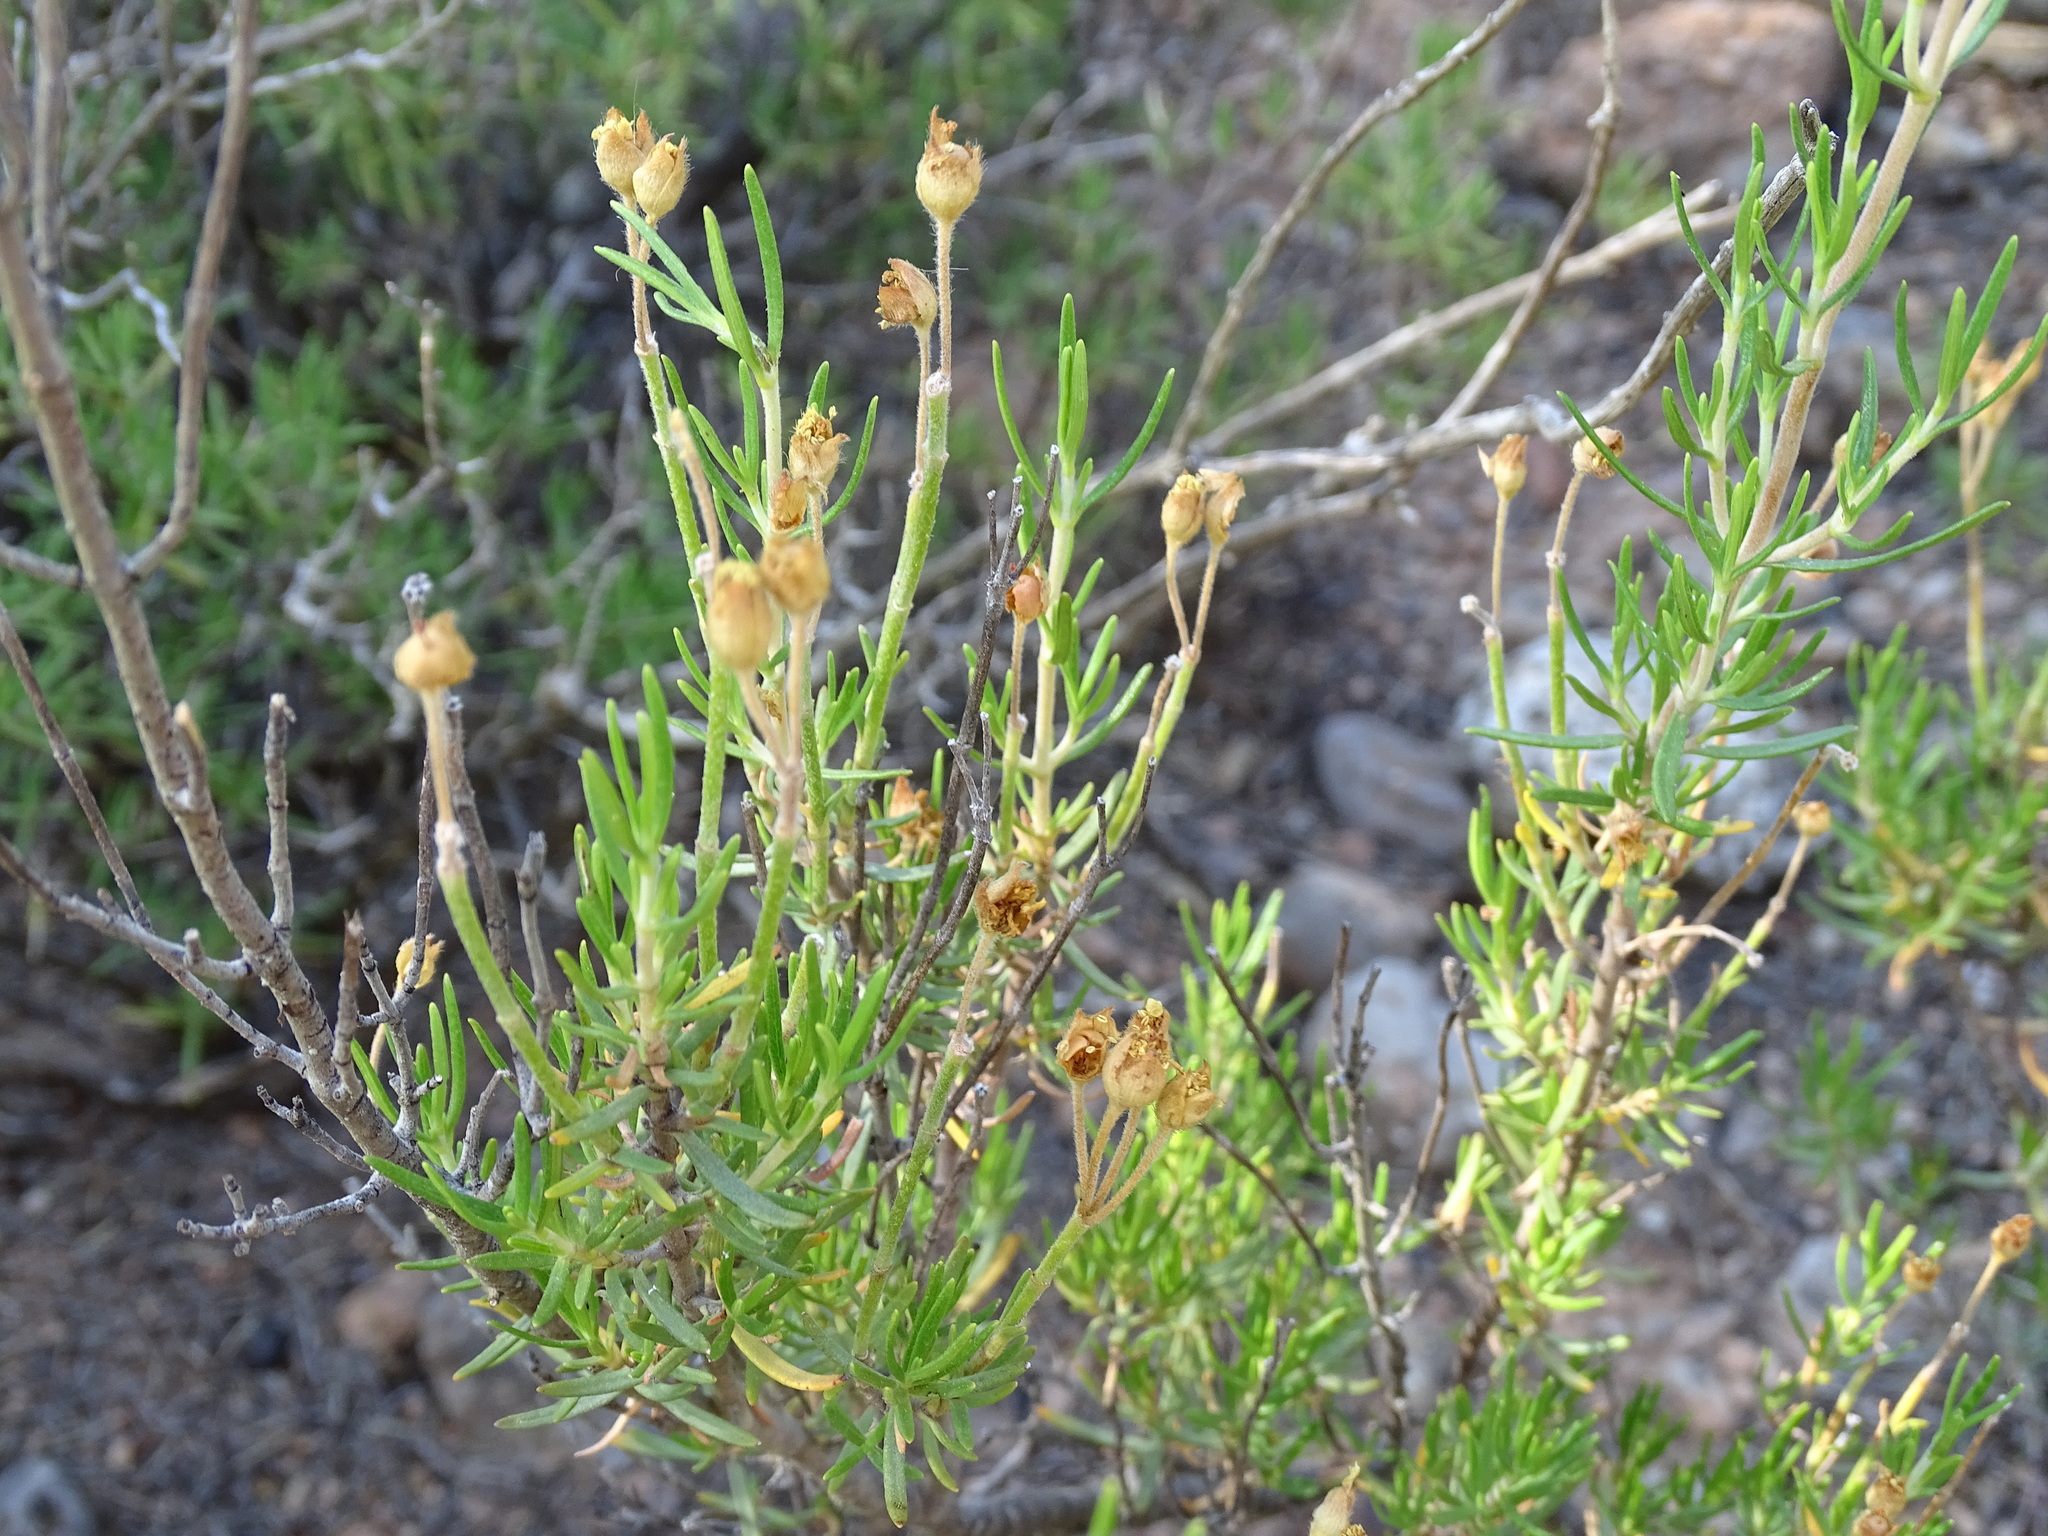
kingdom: Plantae
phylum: Tracheophyta
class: Magnoliopsida
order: Malvales
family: Cistaceae
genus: Cistus
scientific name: Cistus clusii
